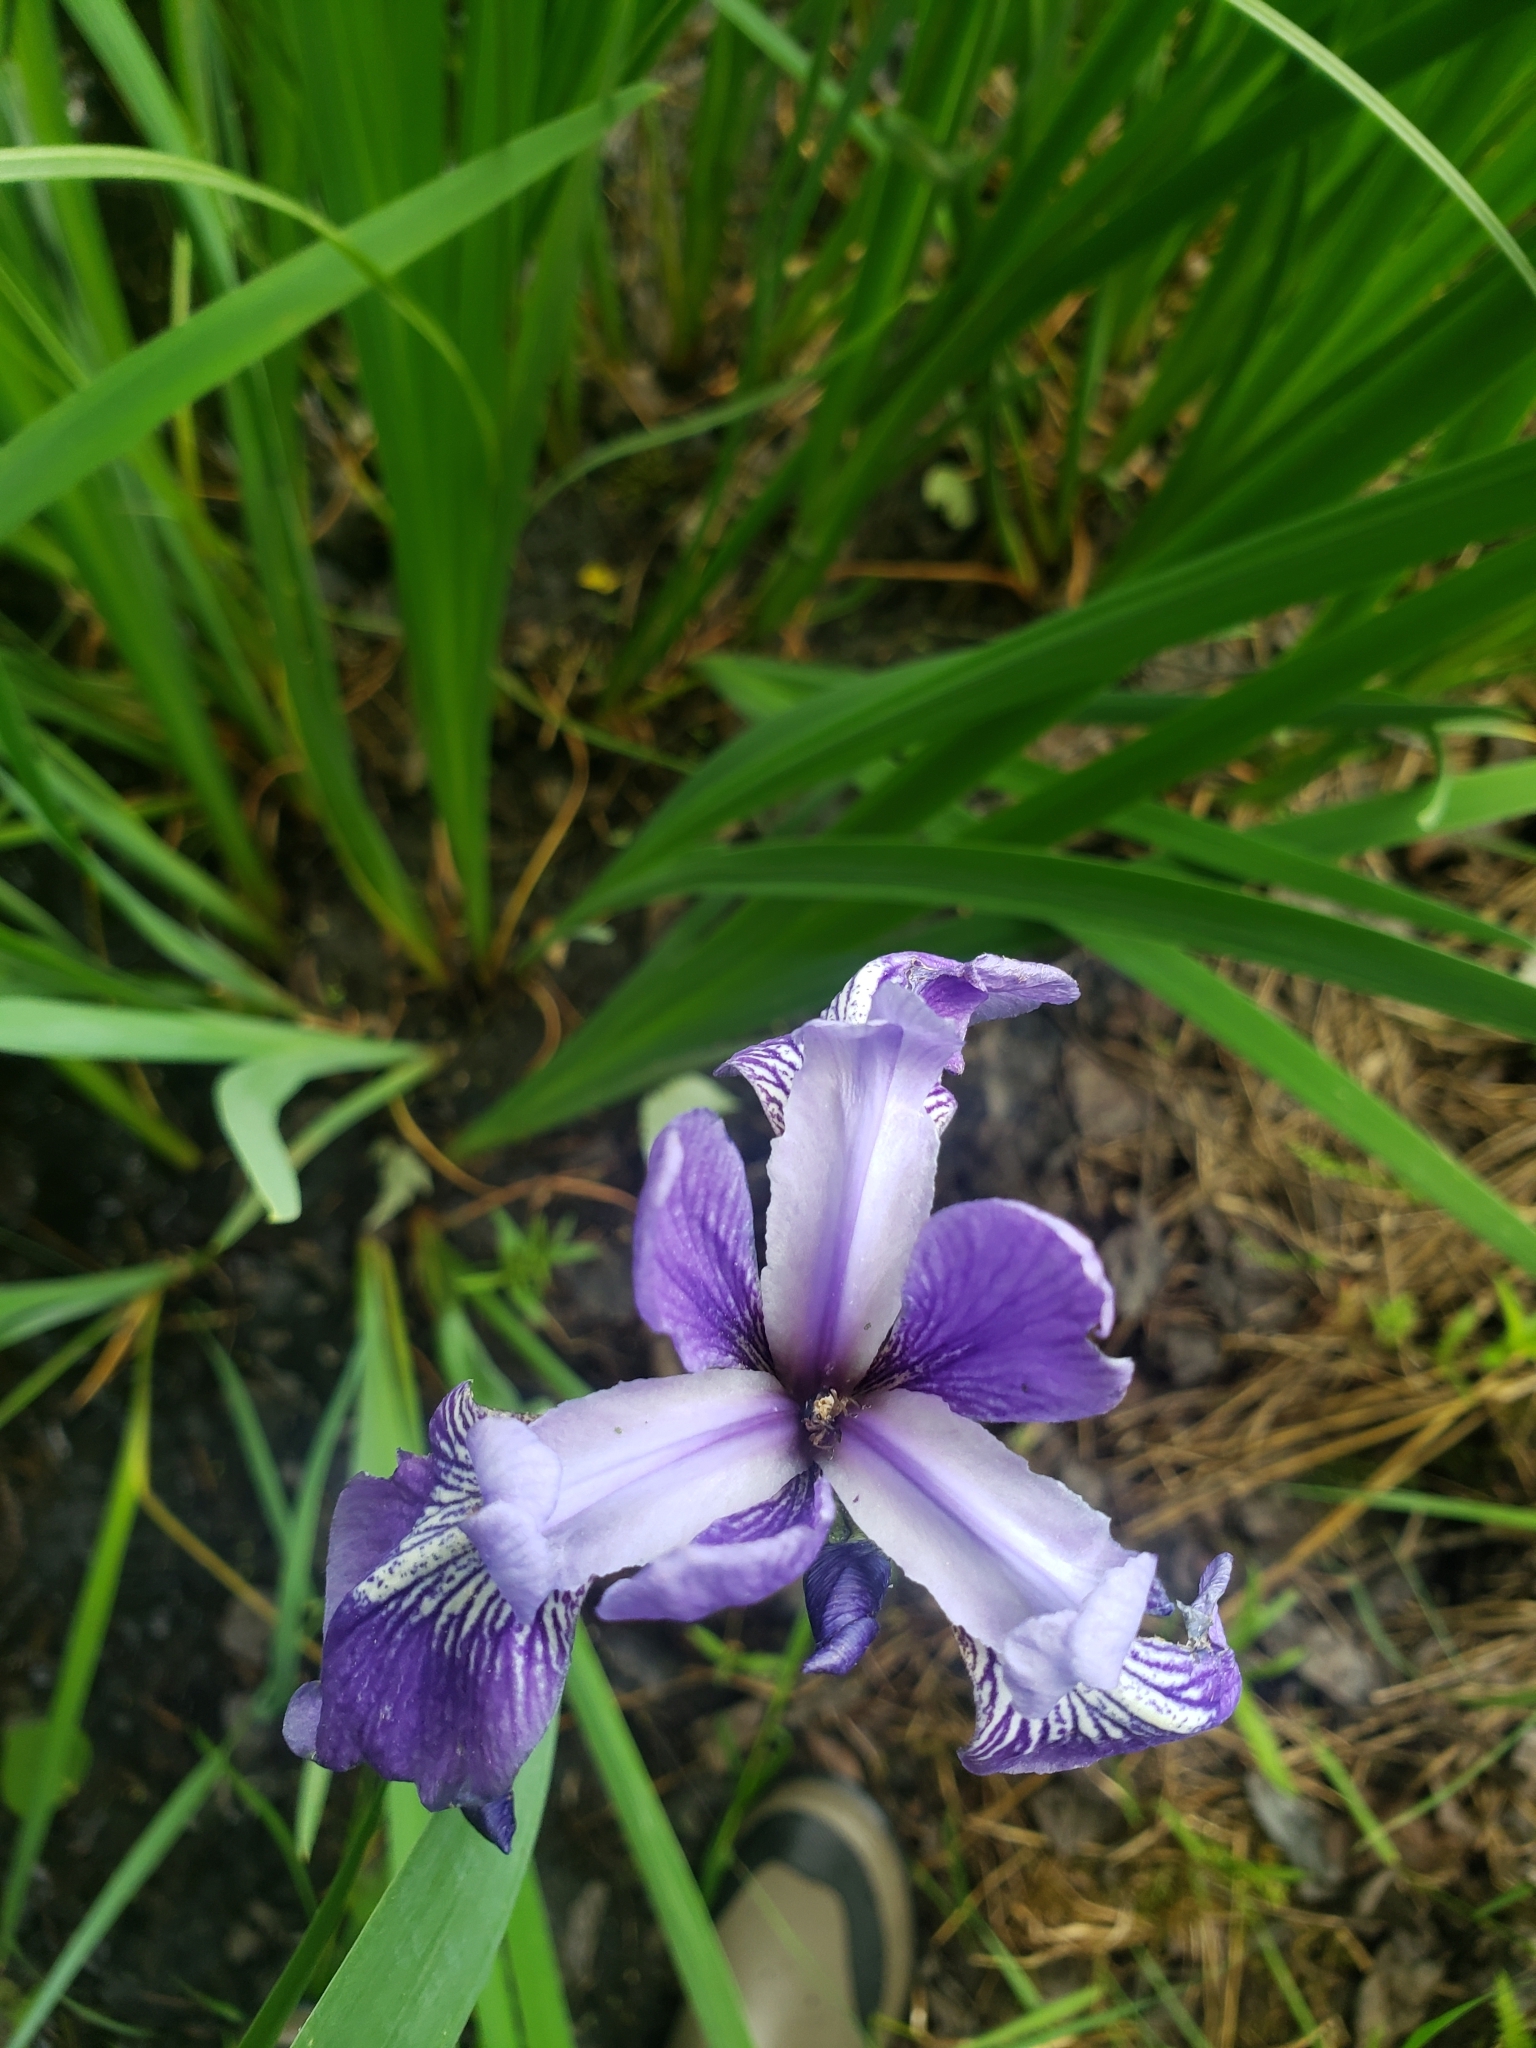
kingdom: Plantae
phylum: Tracheophyta
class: Liliopsida
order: Asparagales
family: Iridaceae
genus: Iris
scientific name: Iris versicolor
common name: Purple iris
